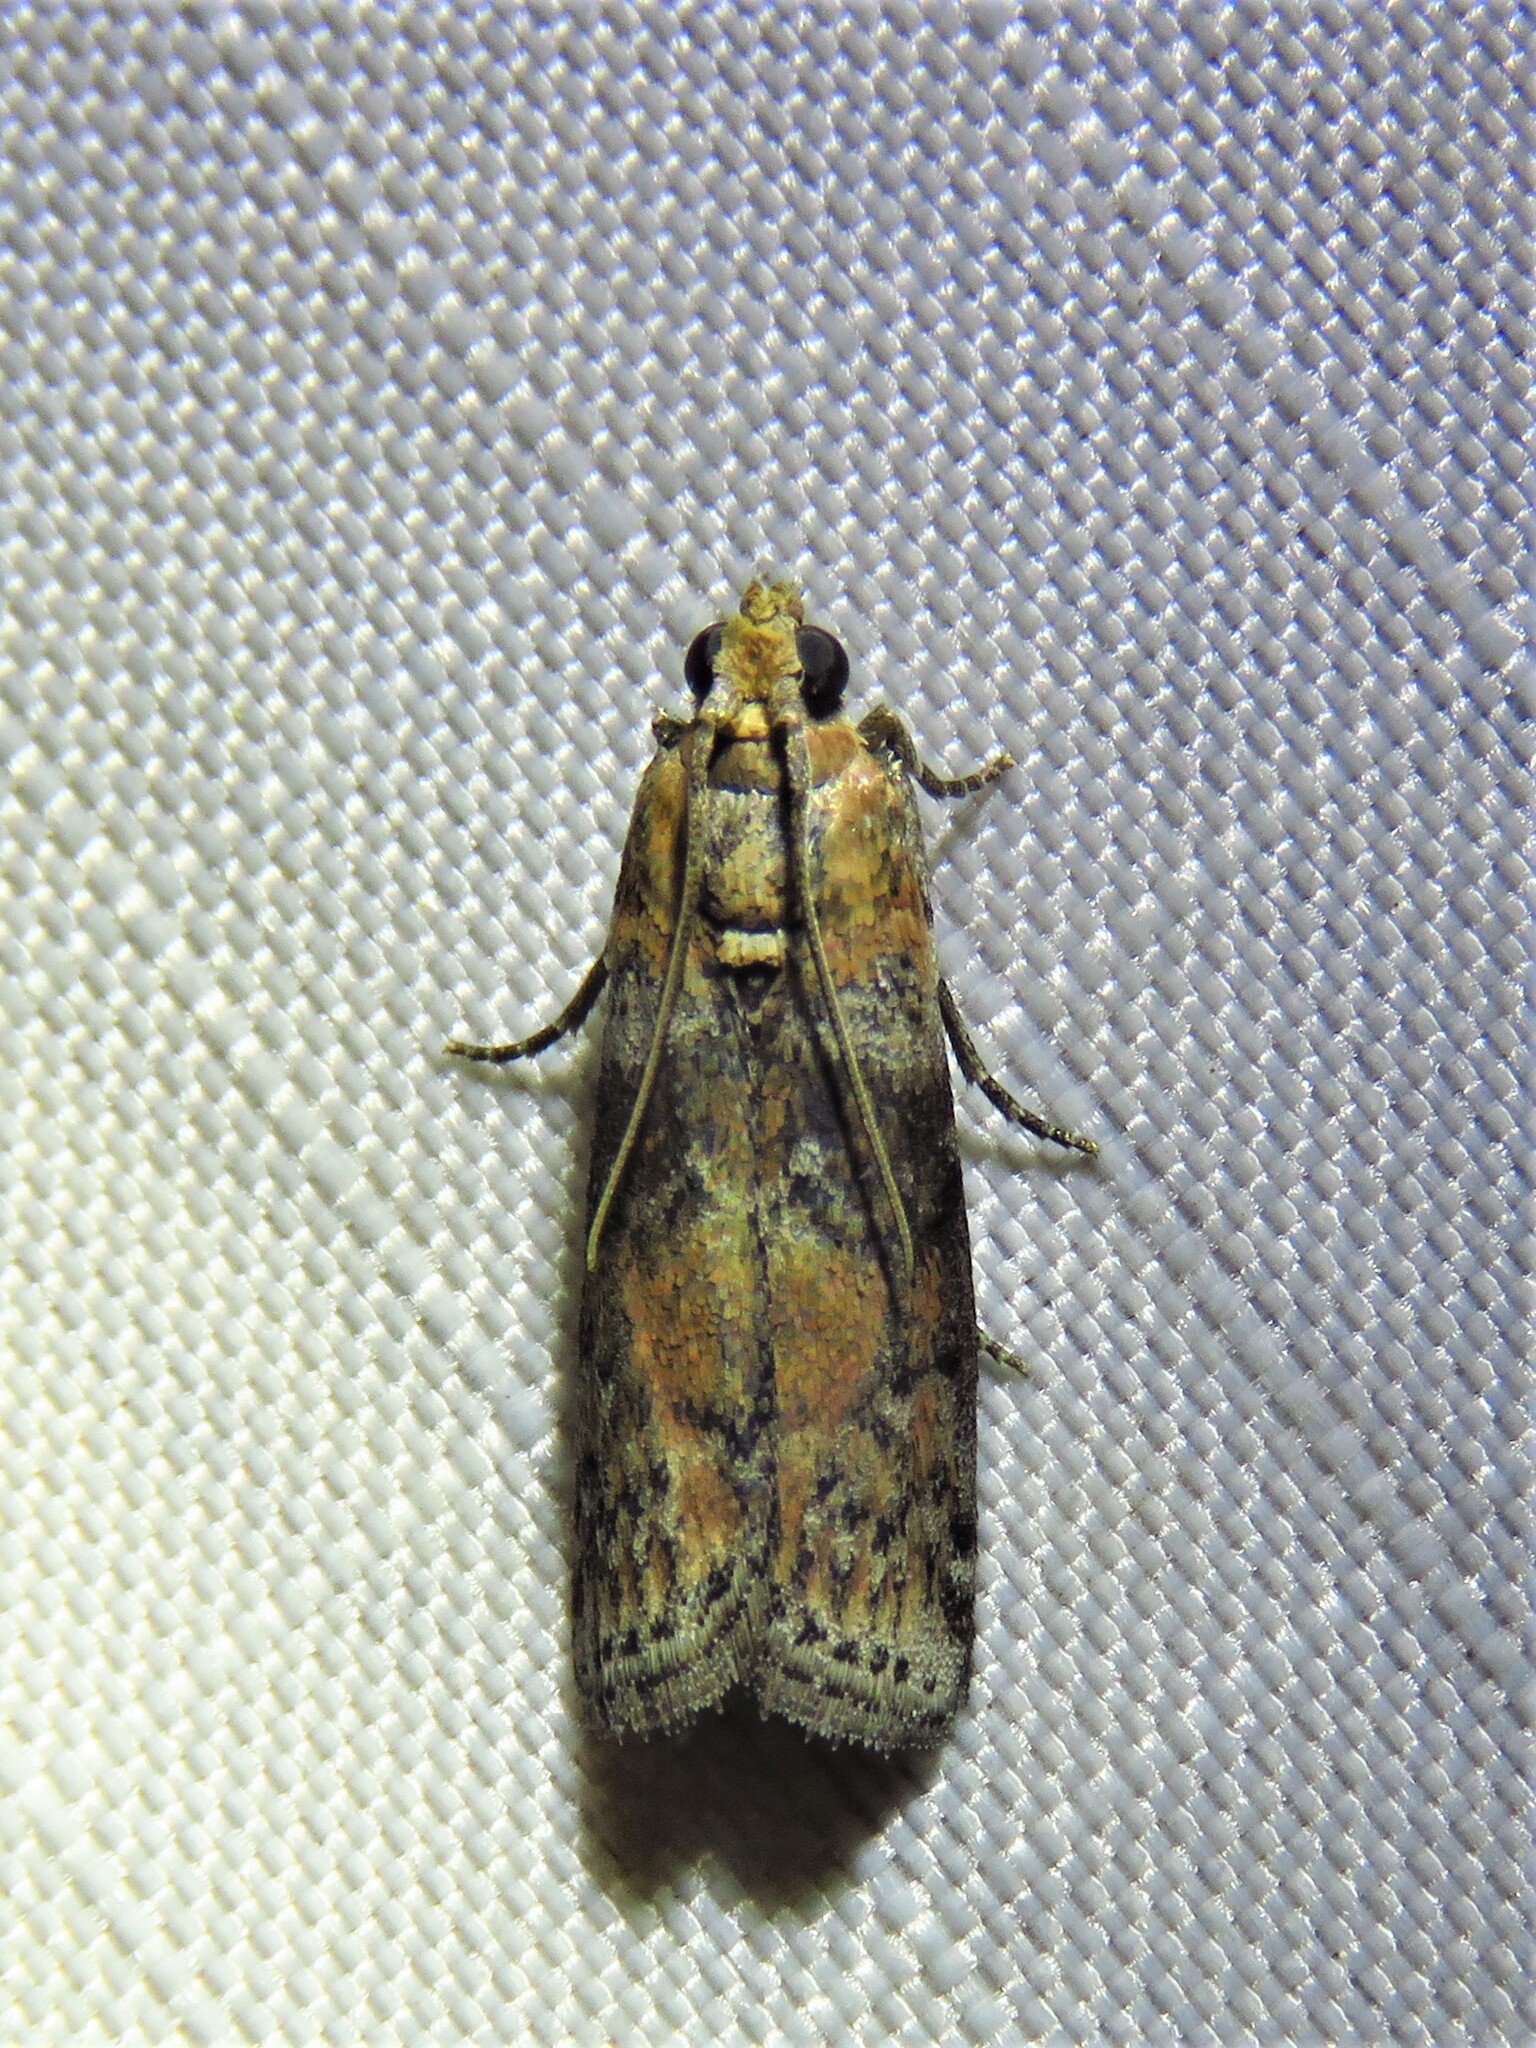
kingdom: Animalia
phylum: Arthropoda
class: Insecta
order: Lepidoptera
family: Pyralidae
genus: Sciota
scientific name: Sciota
